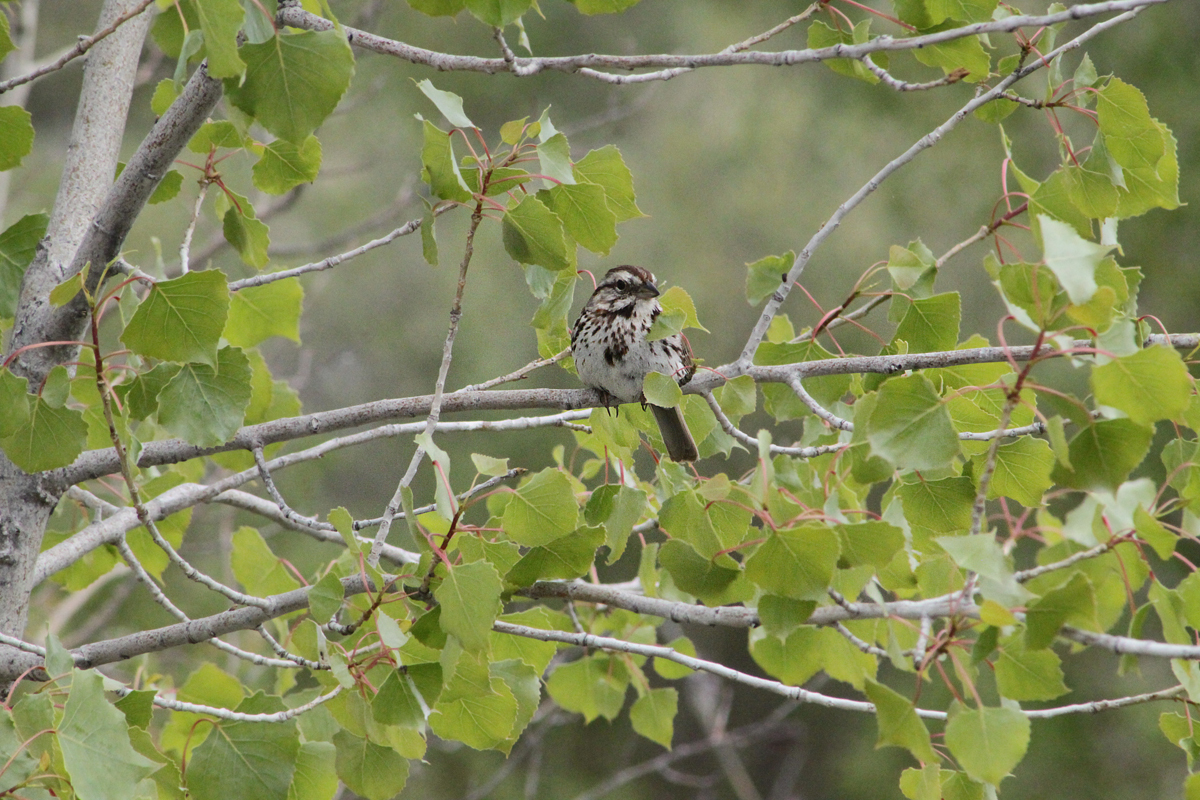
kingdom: Animalia
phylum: Chordata
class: Aves
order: Passeriformes
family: Passerellidae
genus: Melospiza
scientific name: Melospiza melodia
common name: Song sparrow
